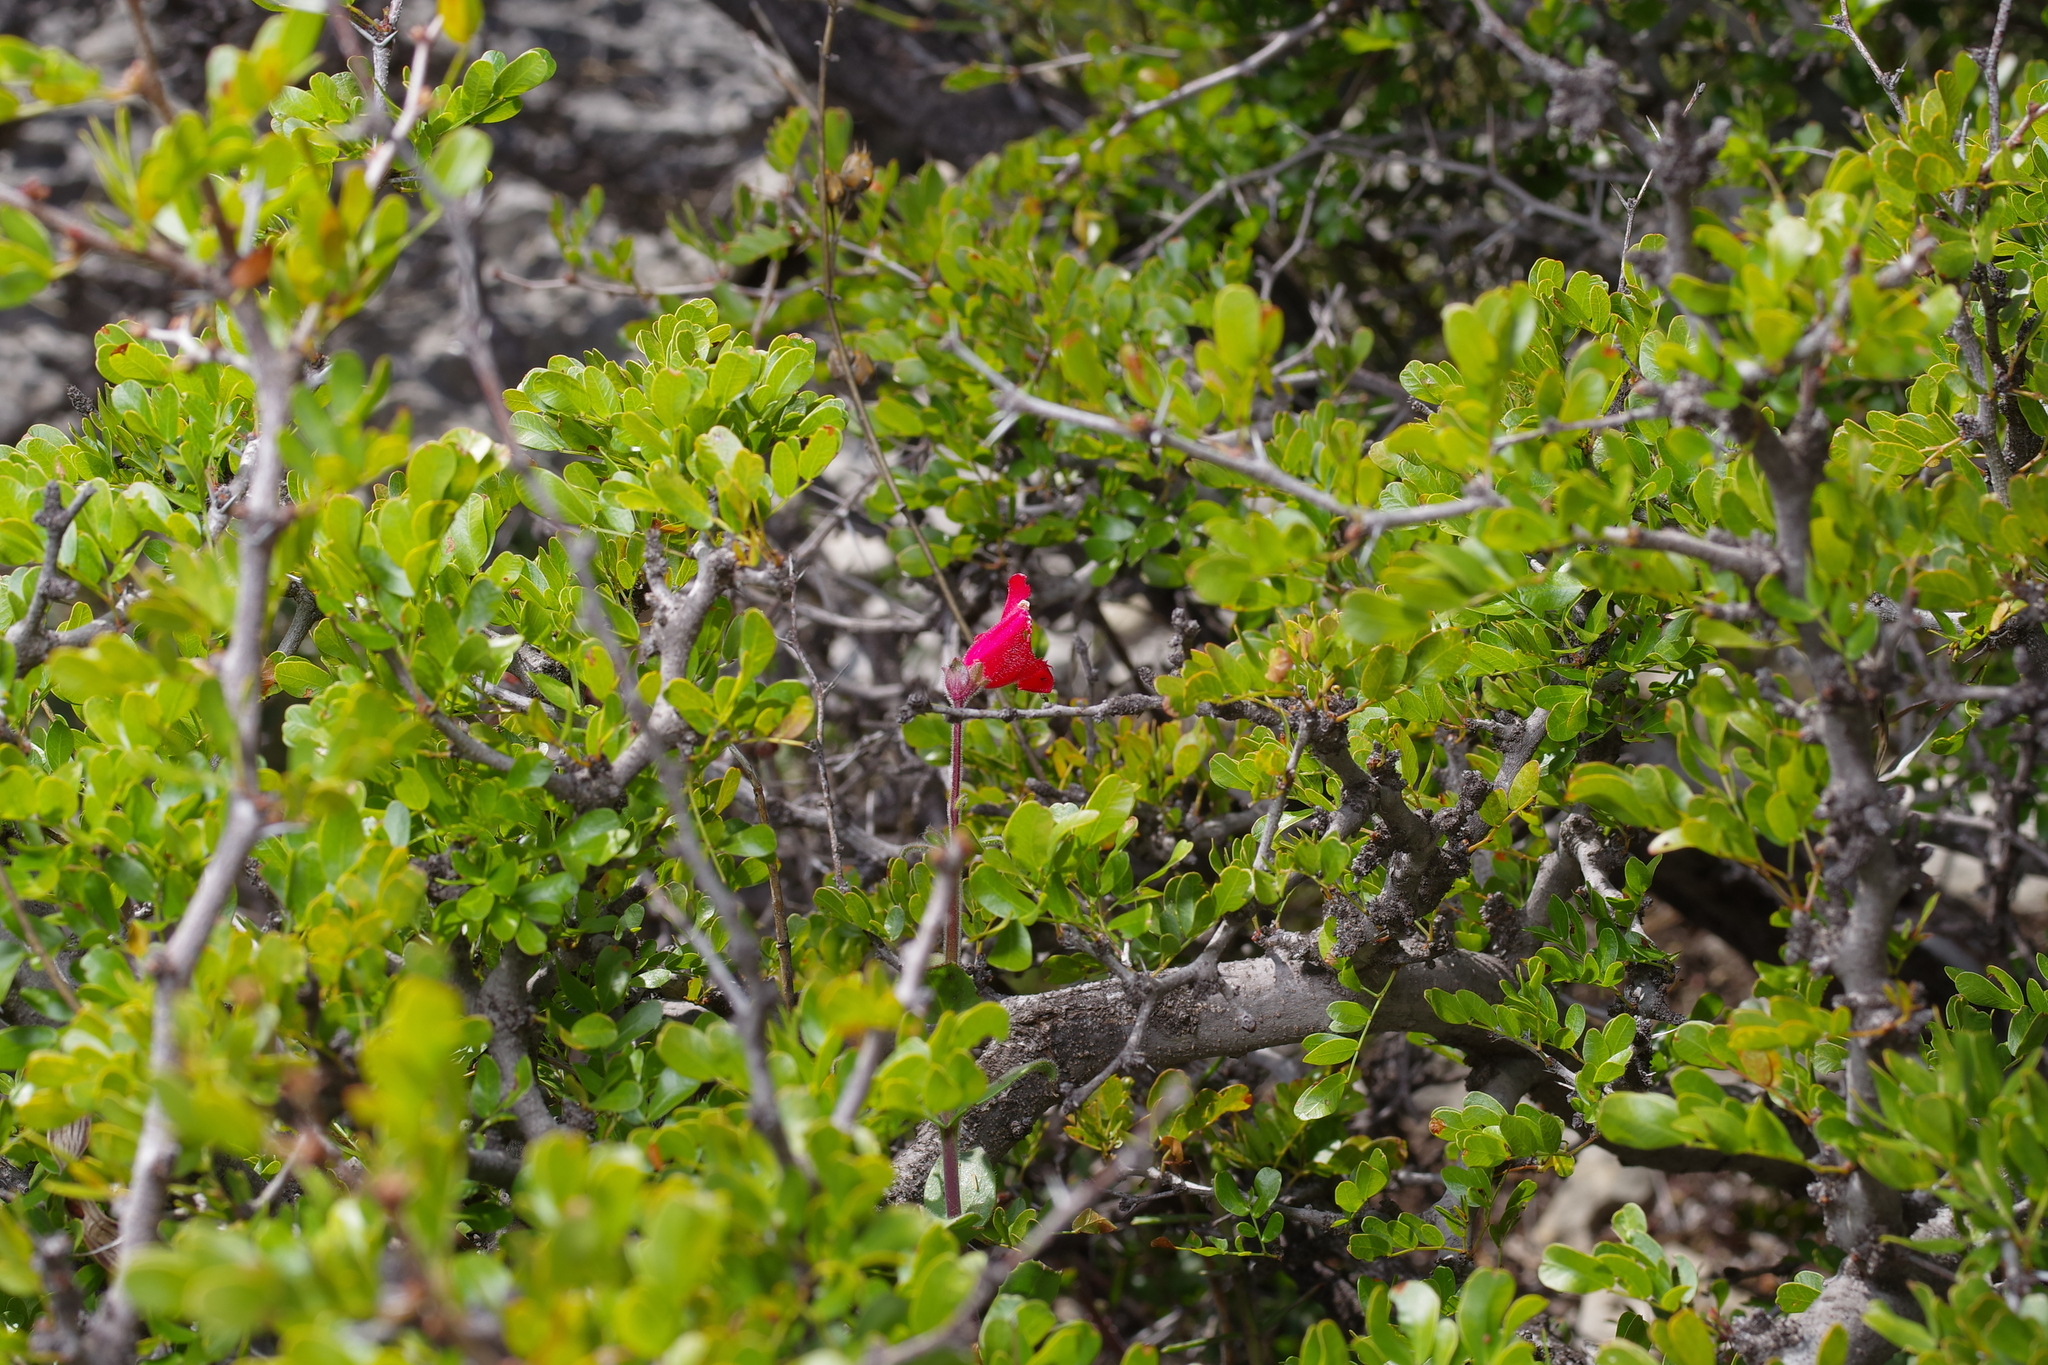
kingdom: Plantae
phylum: Tracheophyta
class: Magnoliopsida
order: Lamiales
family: Plantaginaceae
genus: Penstemon
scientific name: Penstemon baccharifolius
